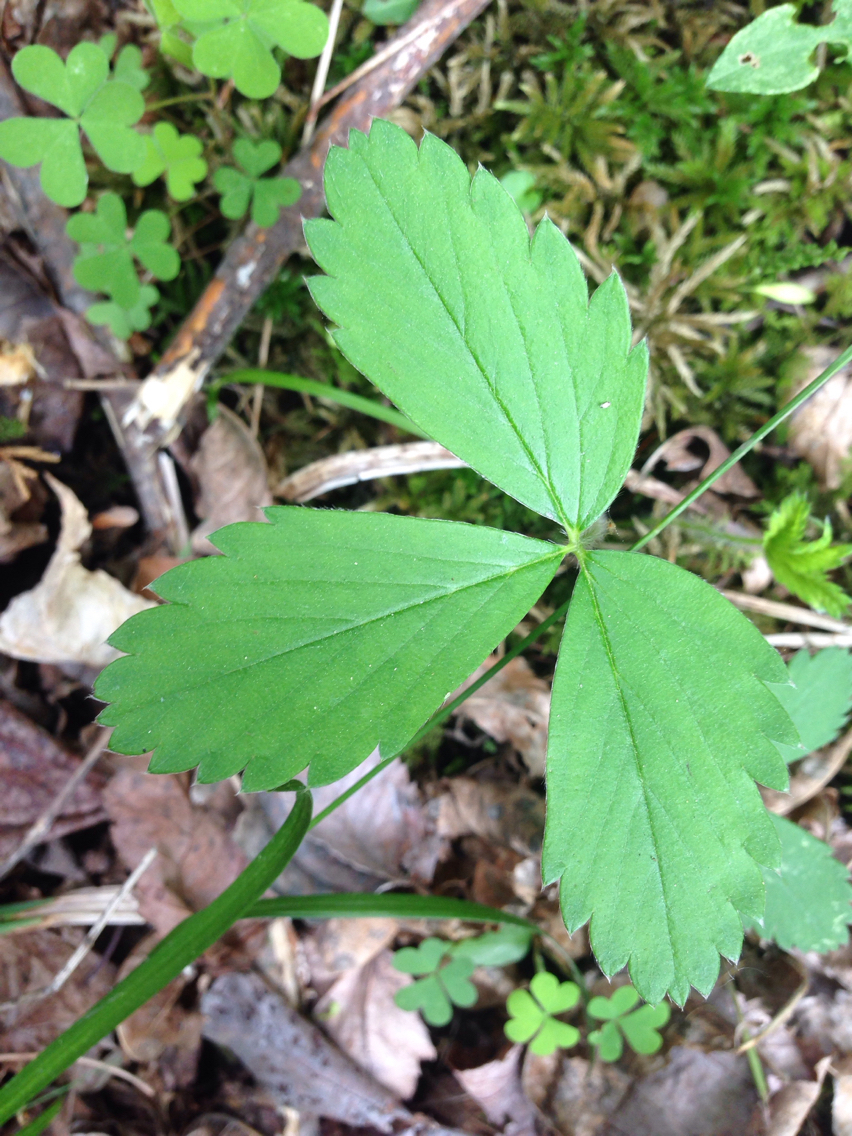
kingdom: Plantae
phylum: Tracheophyta
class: Magnoliopsida
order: Rosales
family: Rosaceae
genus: Fragaria
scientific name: Fragaria vesca
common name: Wild strawberry
